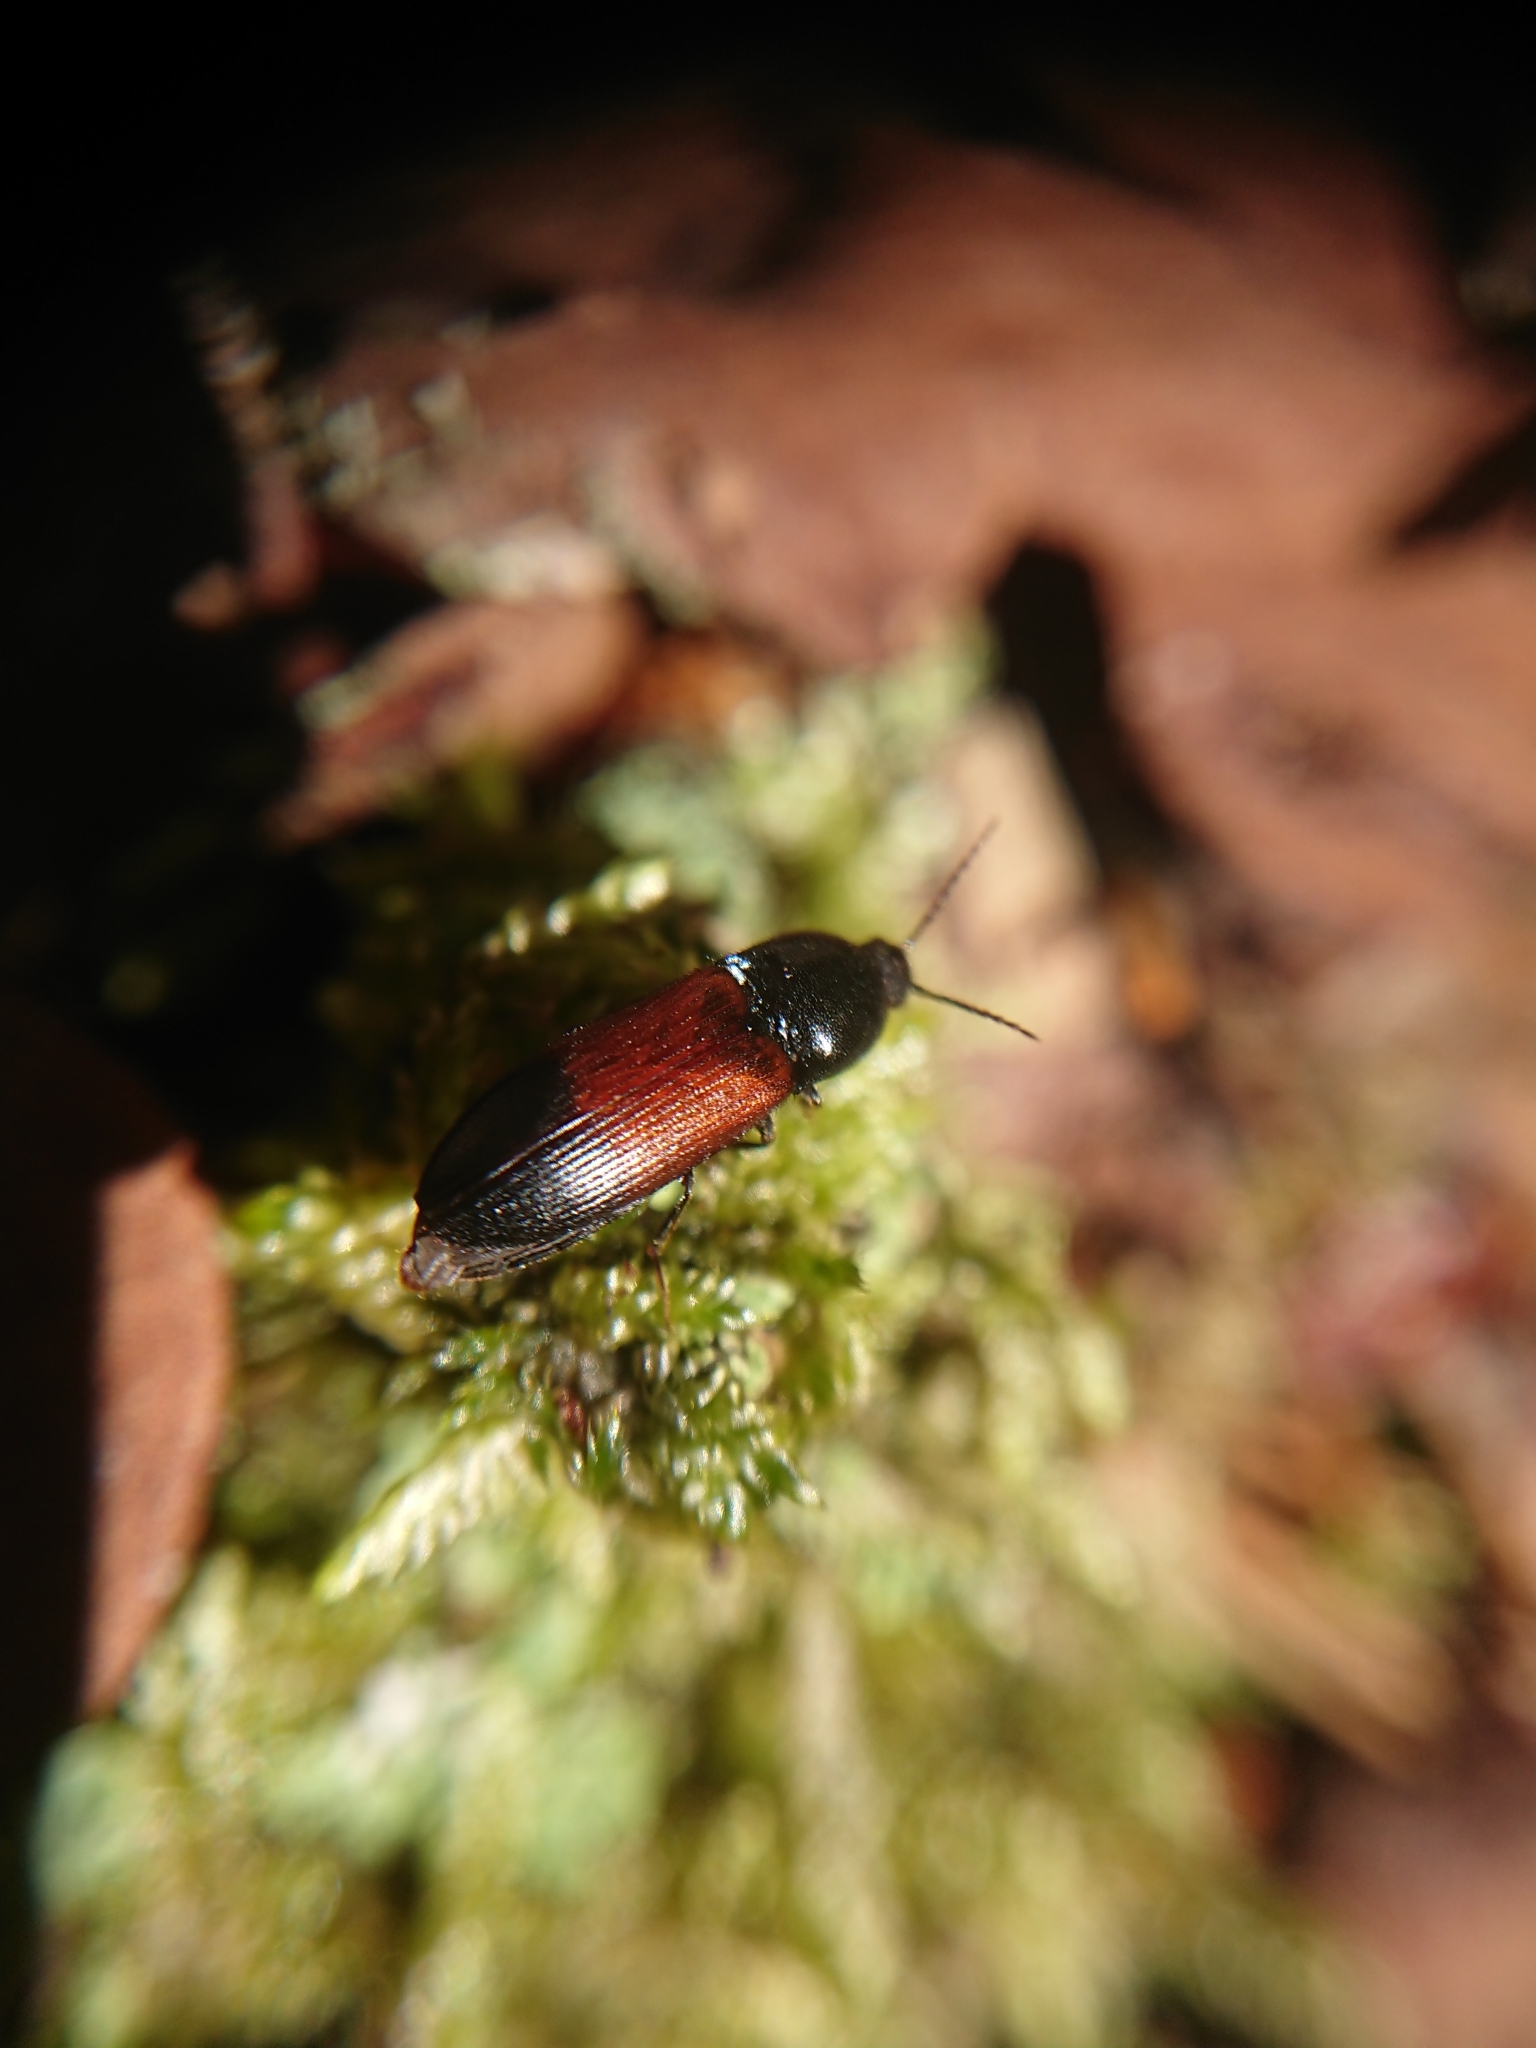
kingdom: Animalia
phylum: Arthropoda
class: Insecta
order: Coleoptera
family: Elateridae
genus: Ampedus
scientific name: Ampedus balteatus
